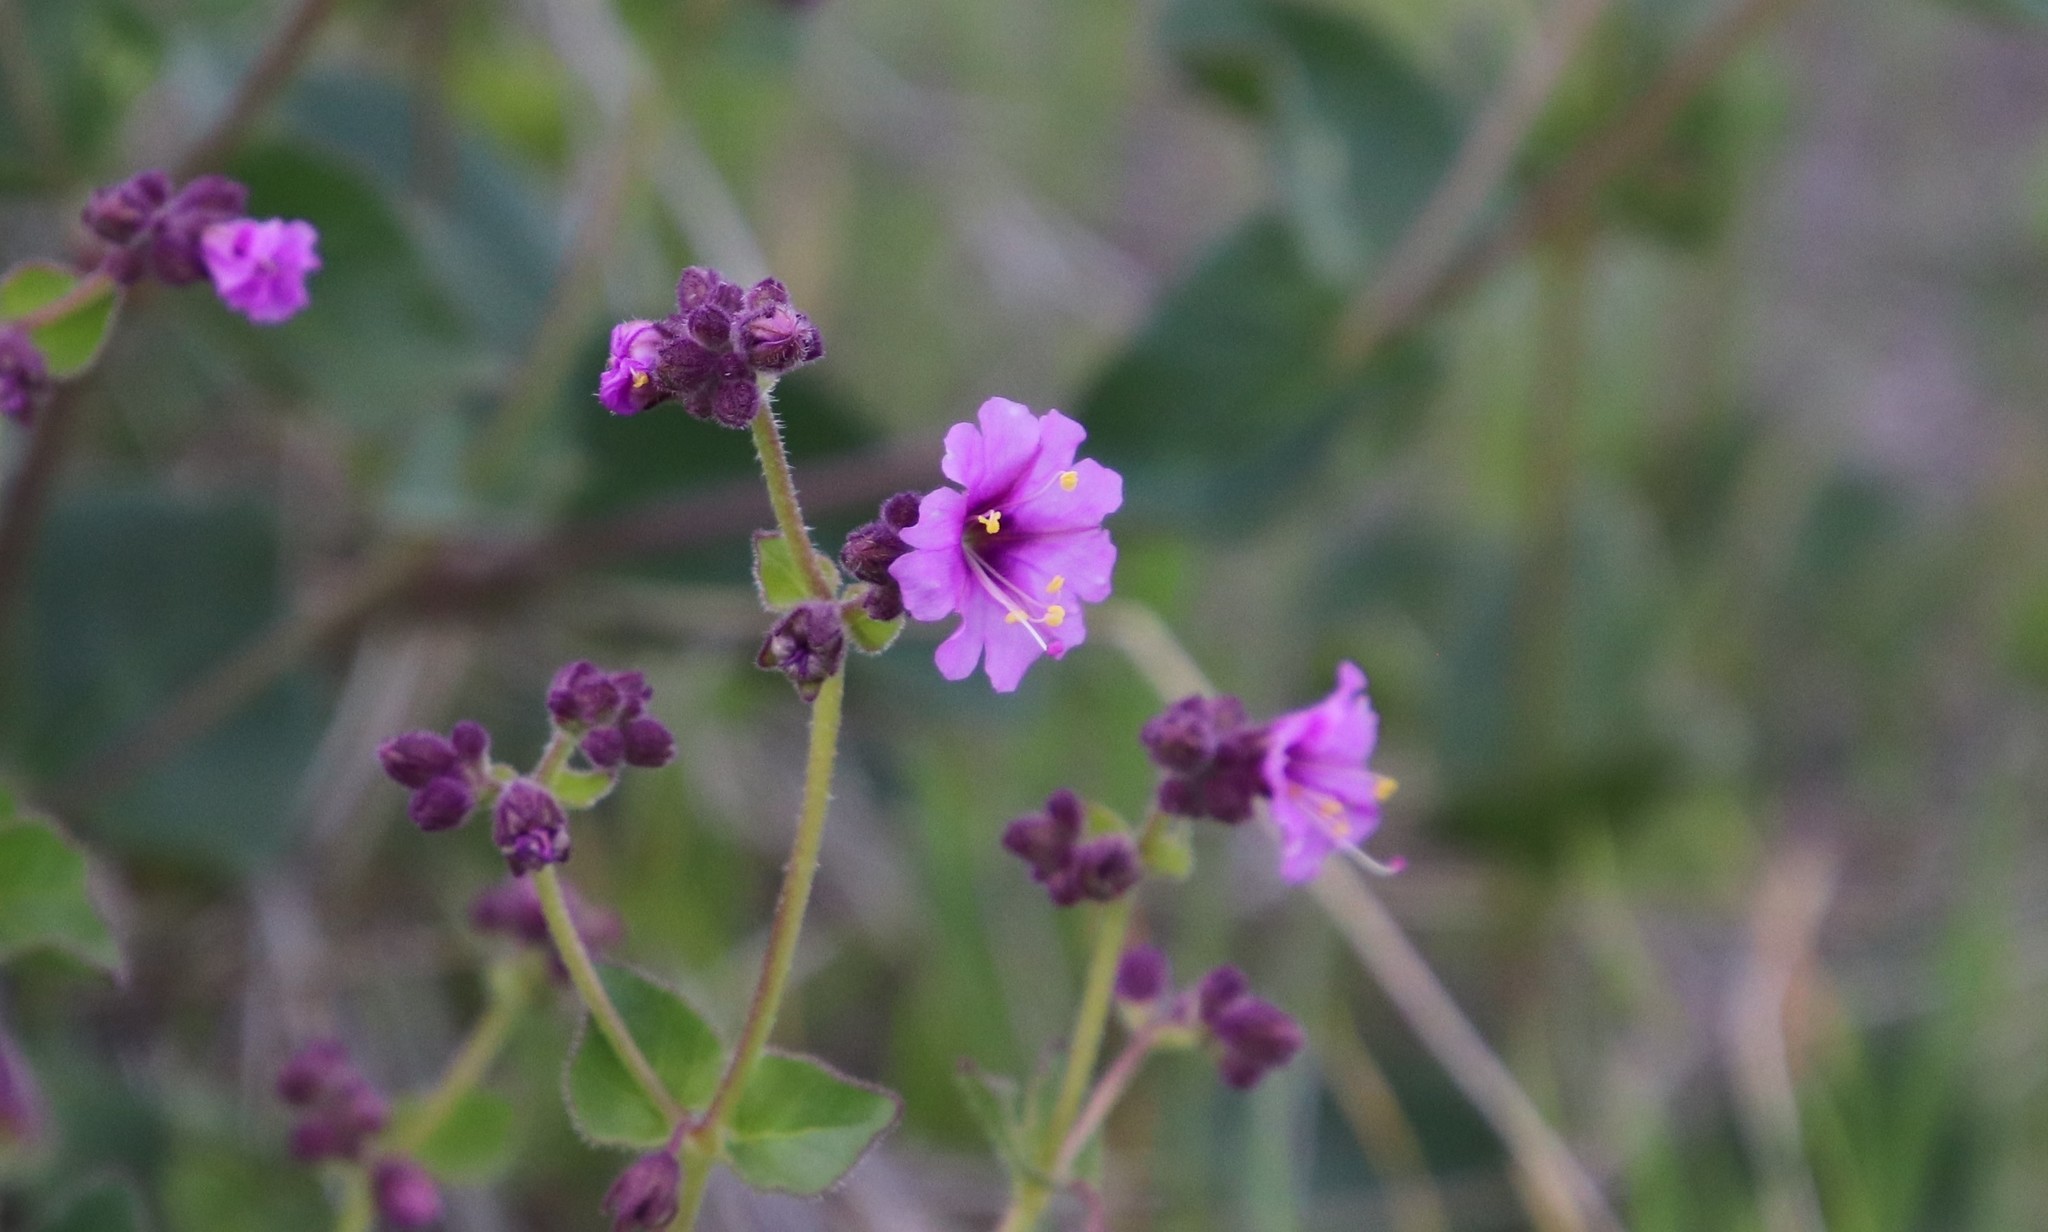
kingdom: Plantae
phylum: Tracheophyta
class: Magnoliopsida
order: Caryophyllales
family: Nyctaginaceae
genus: Mirabilis
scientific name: Mirabilis laevis
